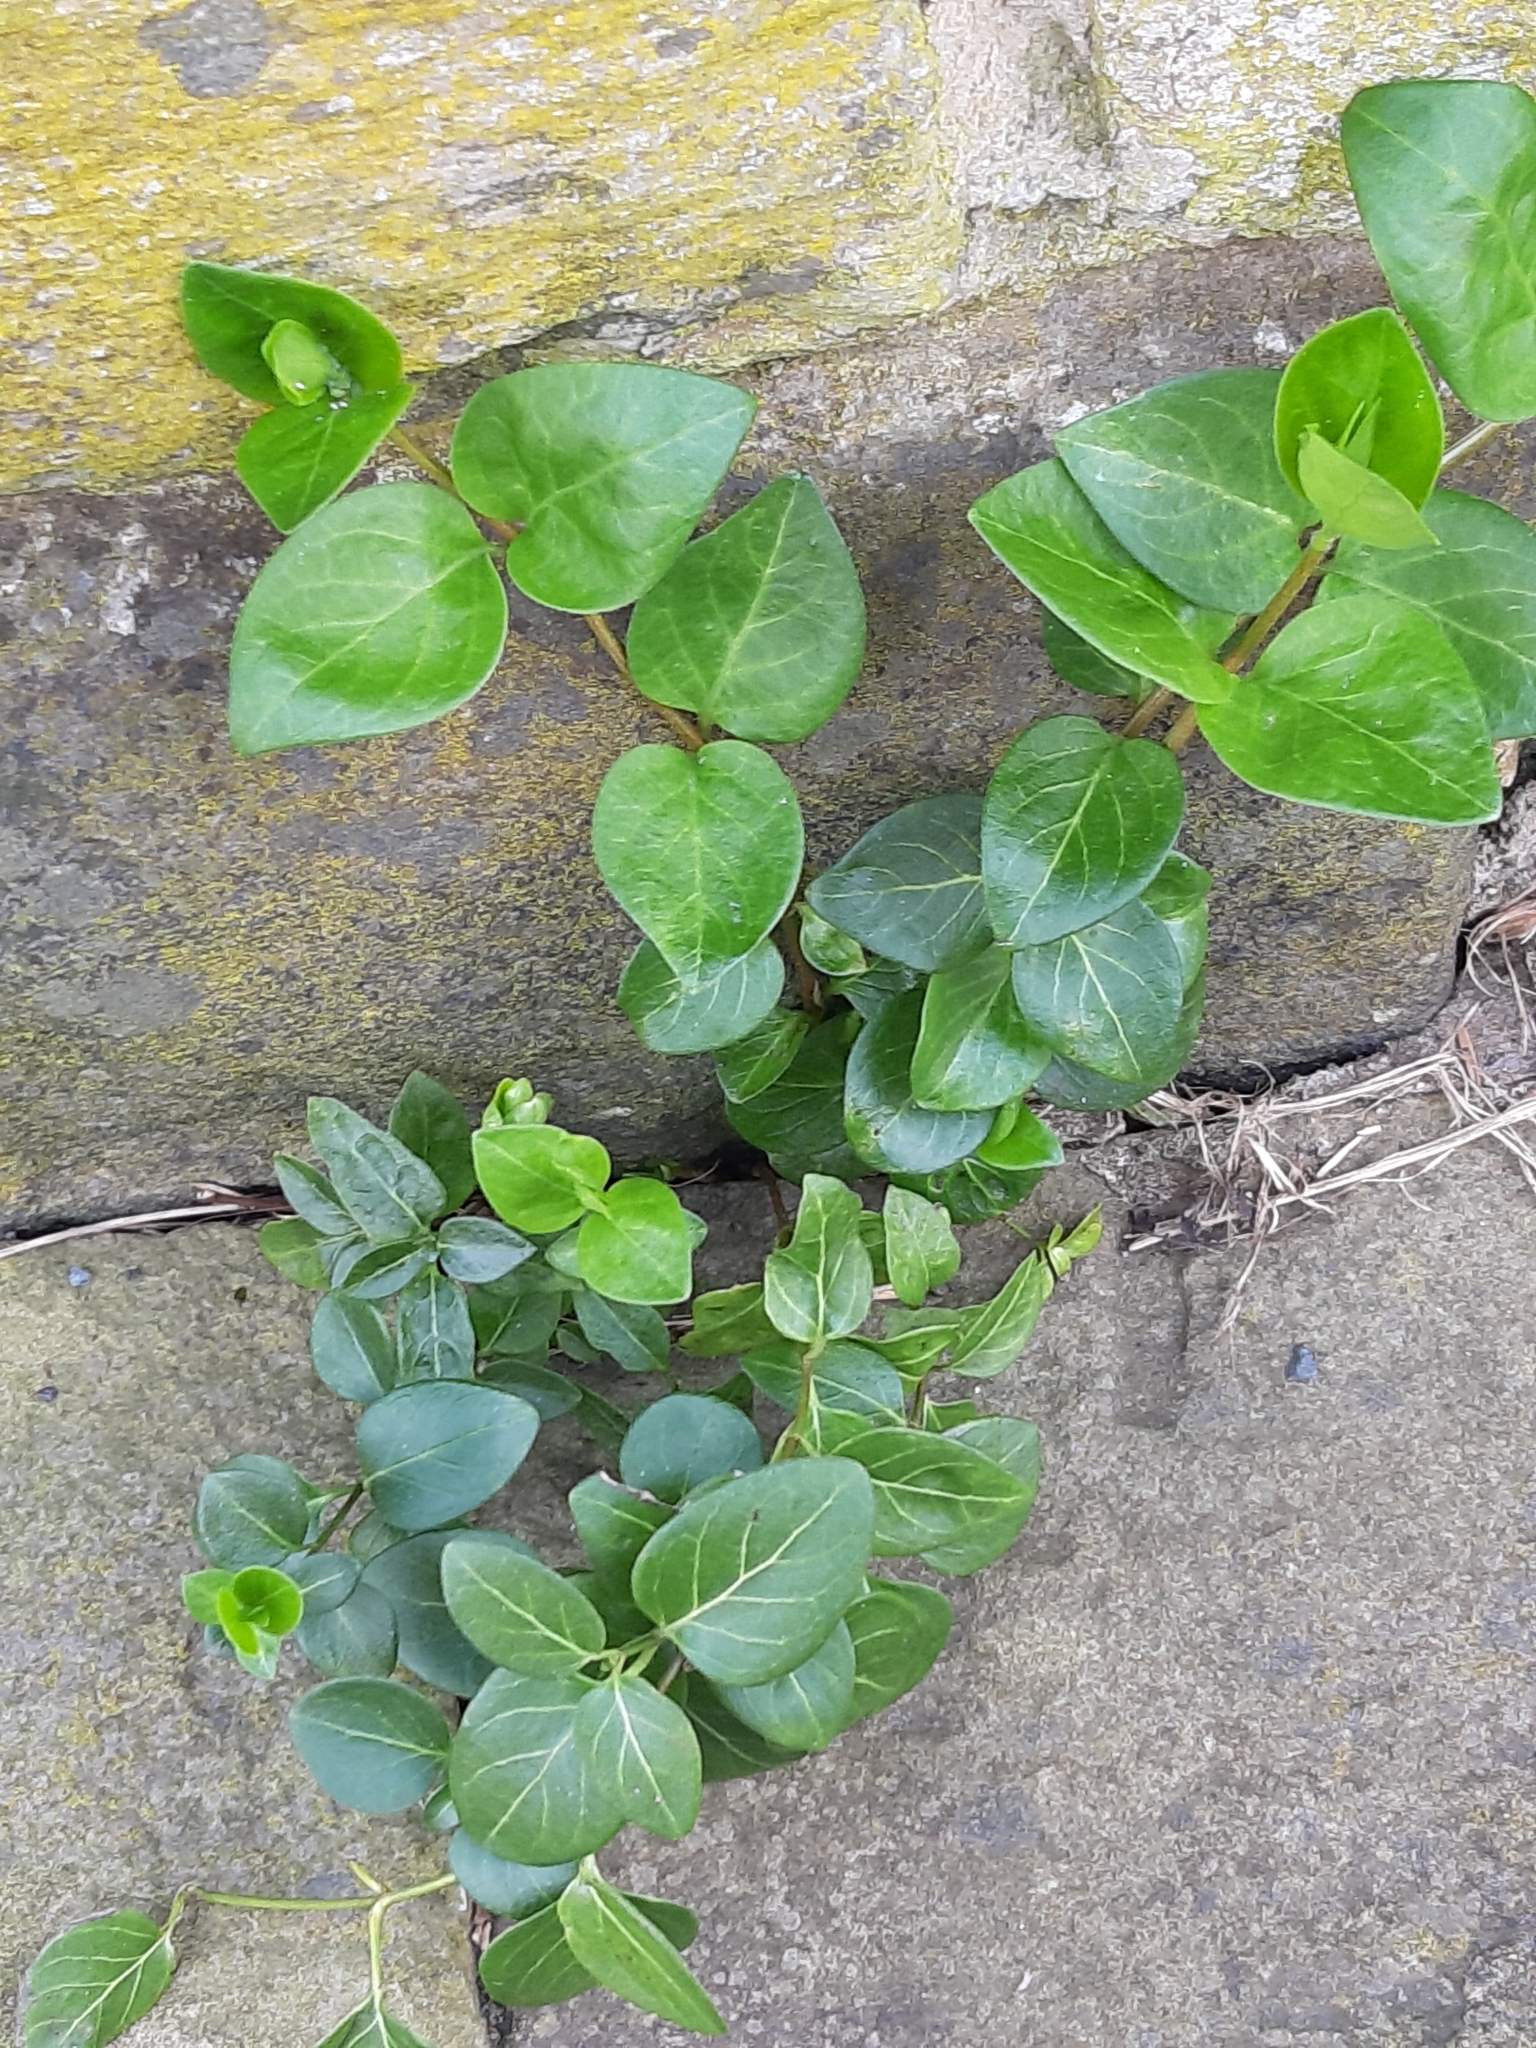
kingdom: Plantae
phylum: Tracheophyta
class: Magnoliopsida
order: Gentianales
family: Apocynaceae
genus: Vinca
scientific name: Vinca major
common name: Greater periwinkle
